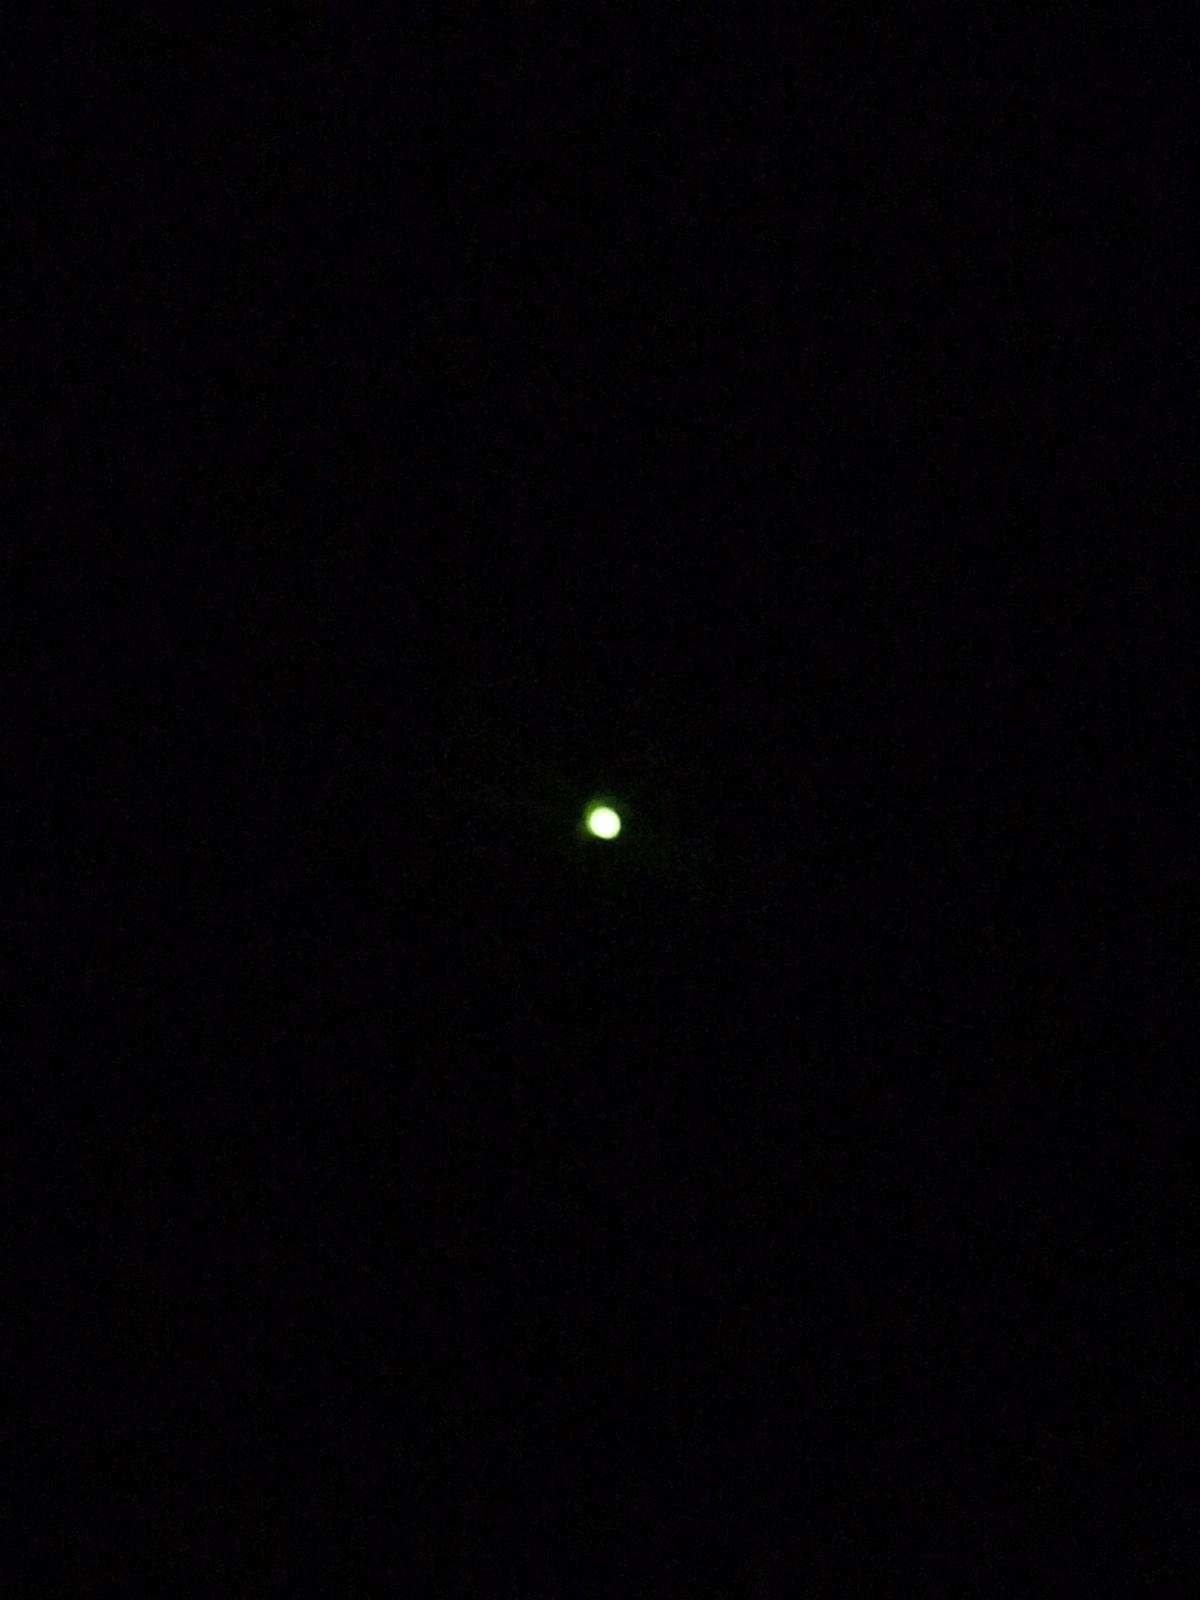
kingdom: Animalia
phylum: Arthropoda
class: Insecta
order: Coleoptera
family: Lampyridae
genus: Lampyris
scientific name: Lampyris noctiluca
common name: Glow-worm
